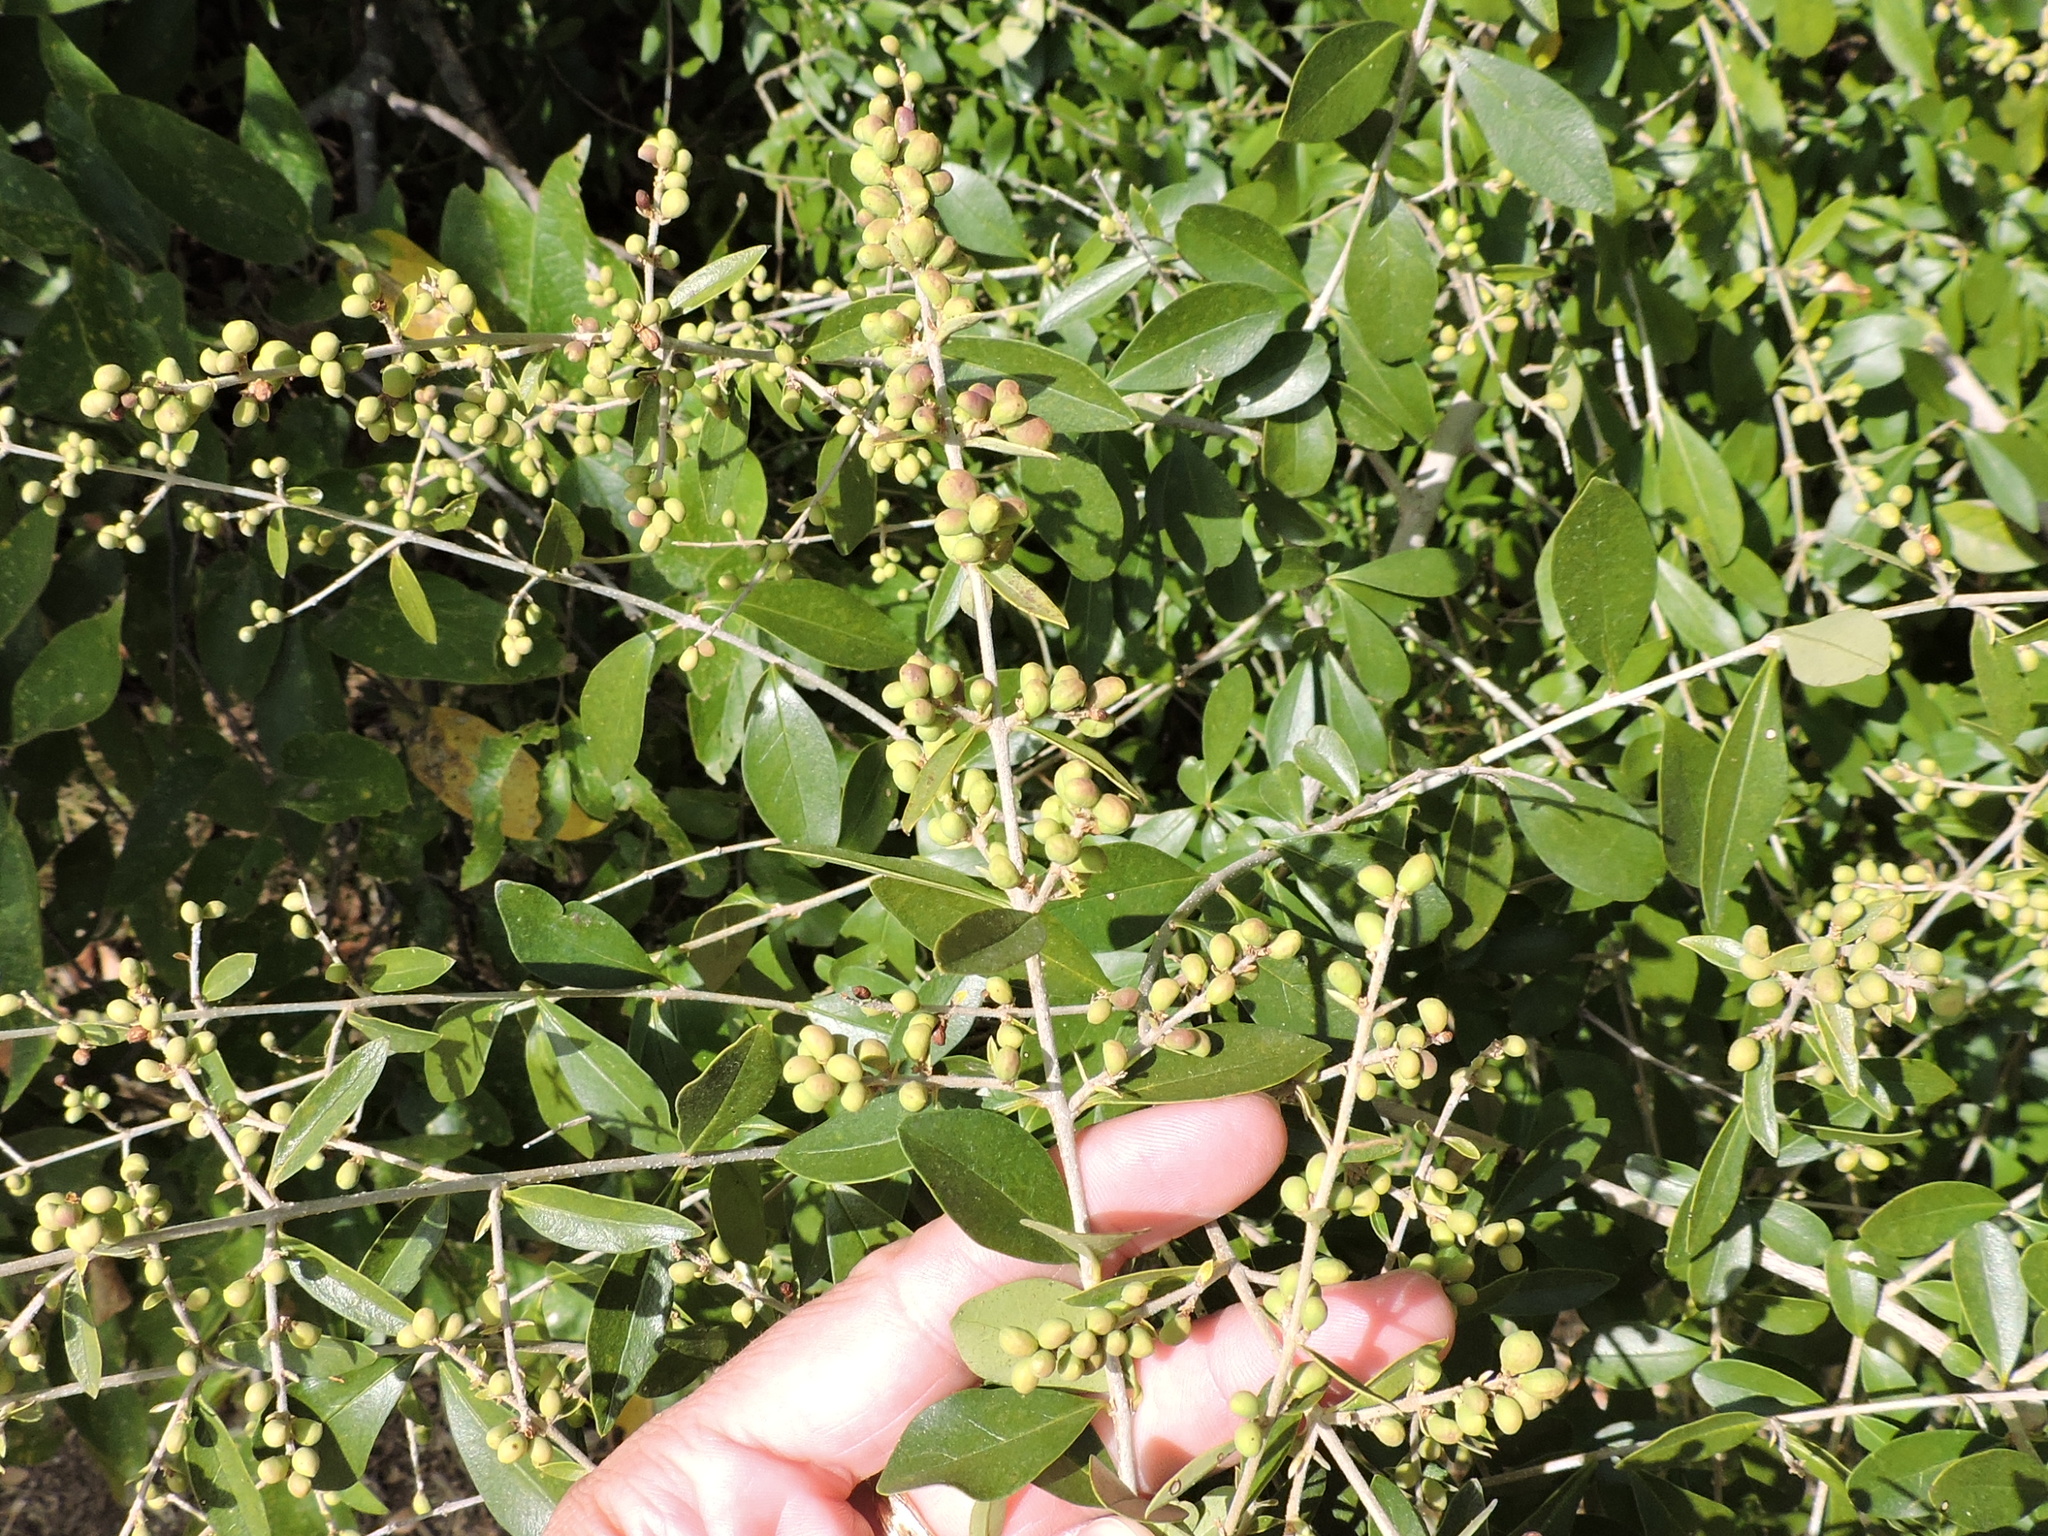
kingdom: Plantae
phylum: Tracheophyta
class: Magnoliopsida
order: Lamiales
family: Oleaceae
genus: Ligustrum
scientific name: Ligustrum quihoui
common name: Waxyleaf privet
